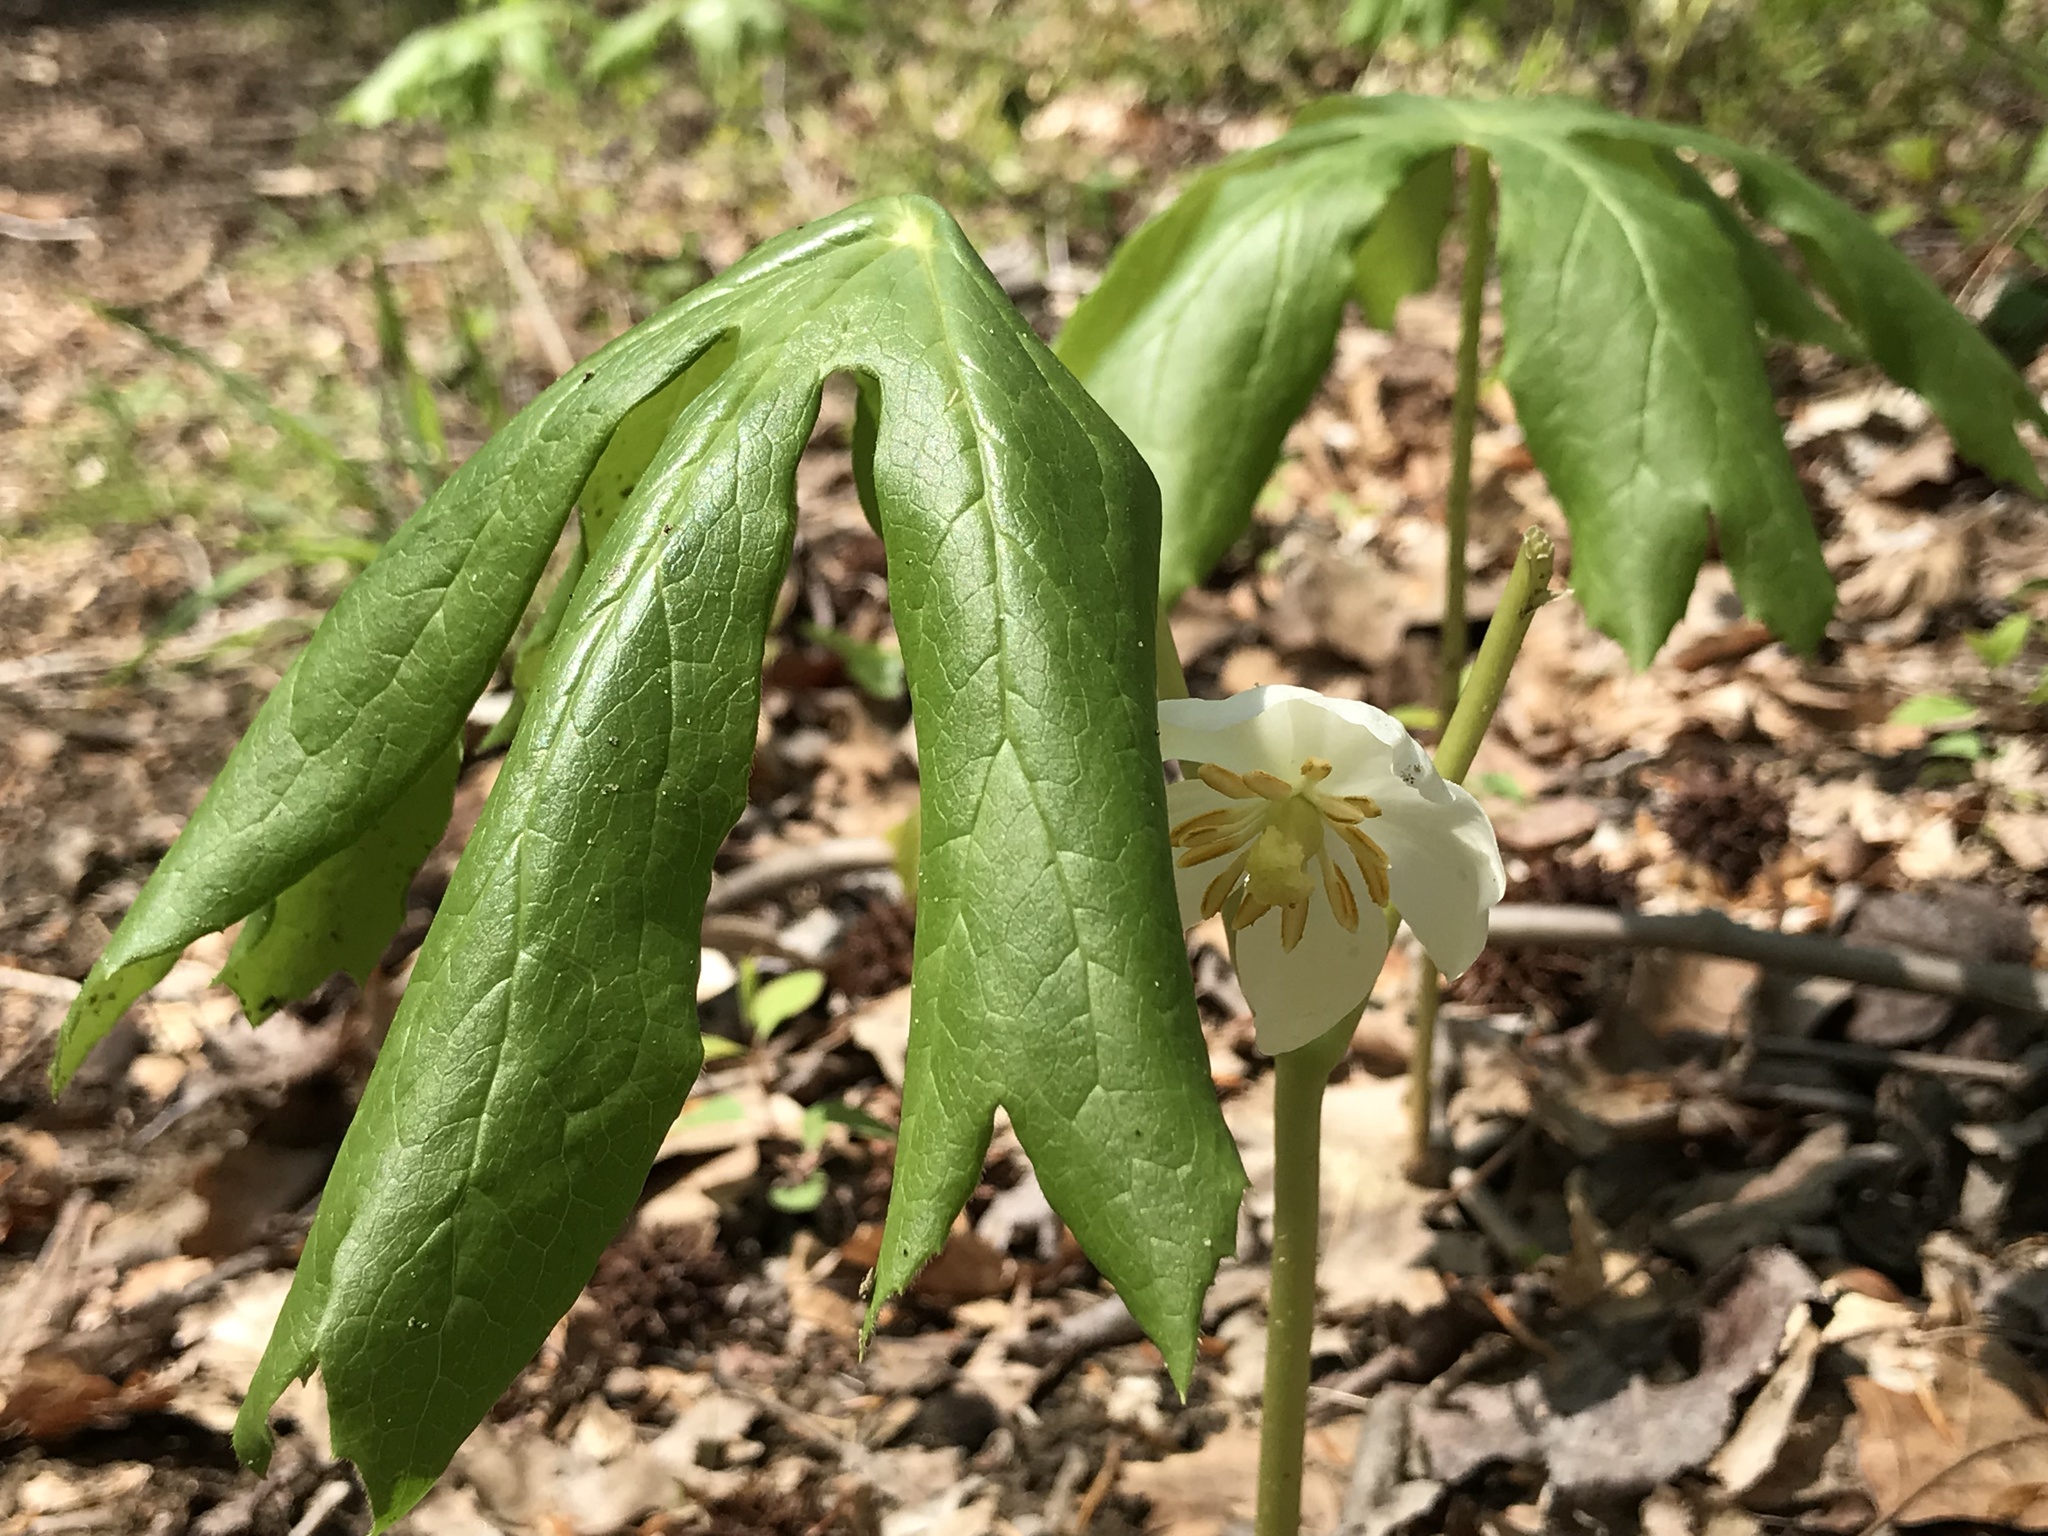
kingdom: Plantae
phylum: Tracheophyta
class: Magnoliopsida
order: Ranunculales
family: Berberidaceae
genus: Podophyllum
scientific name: Podophyllum peltatum
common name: Wild mandrake
